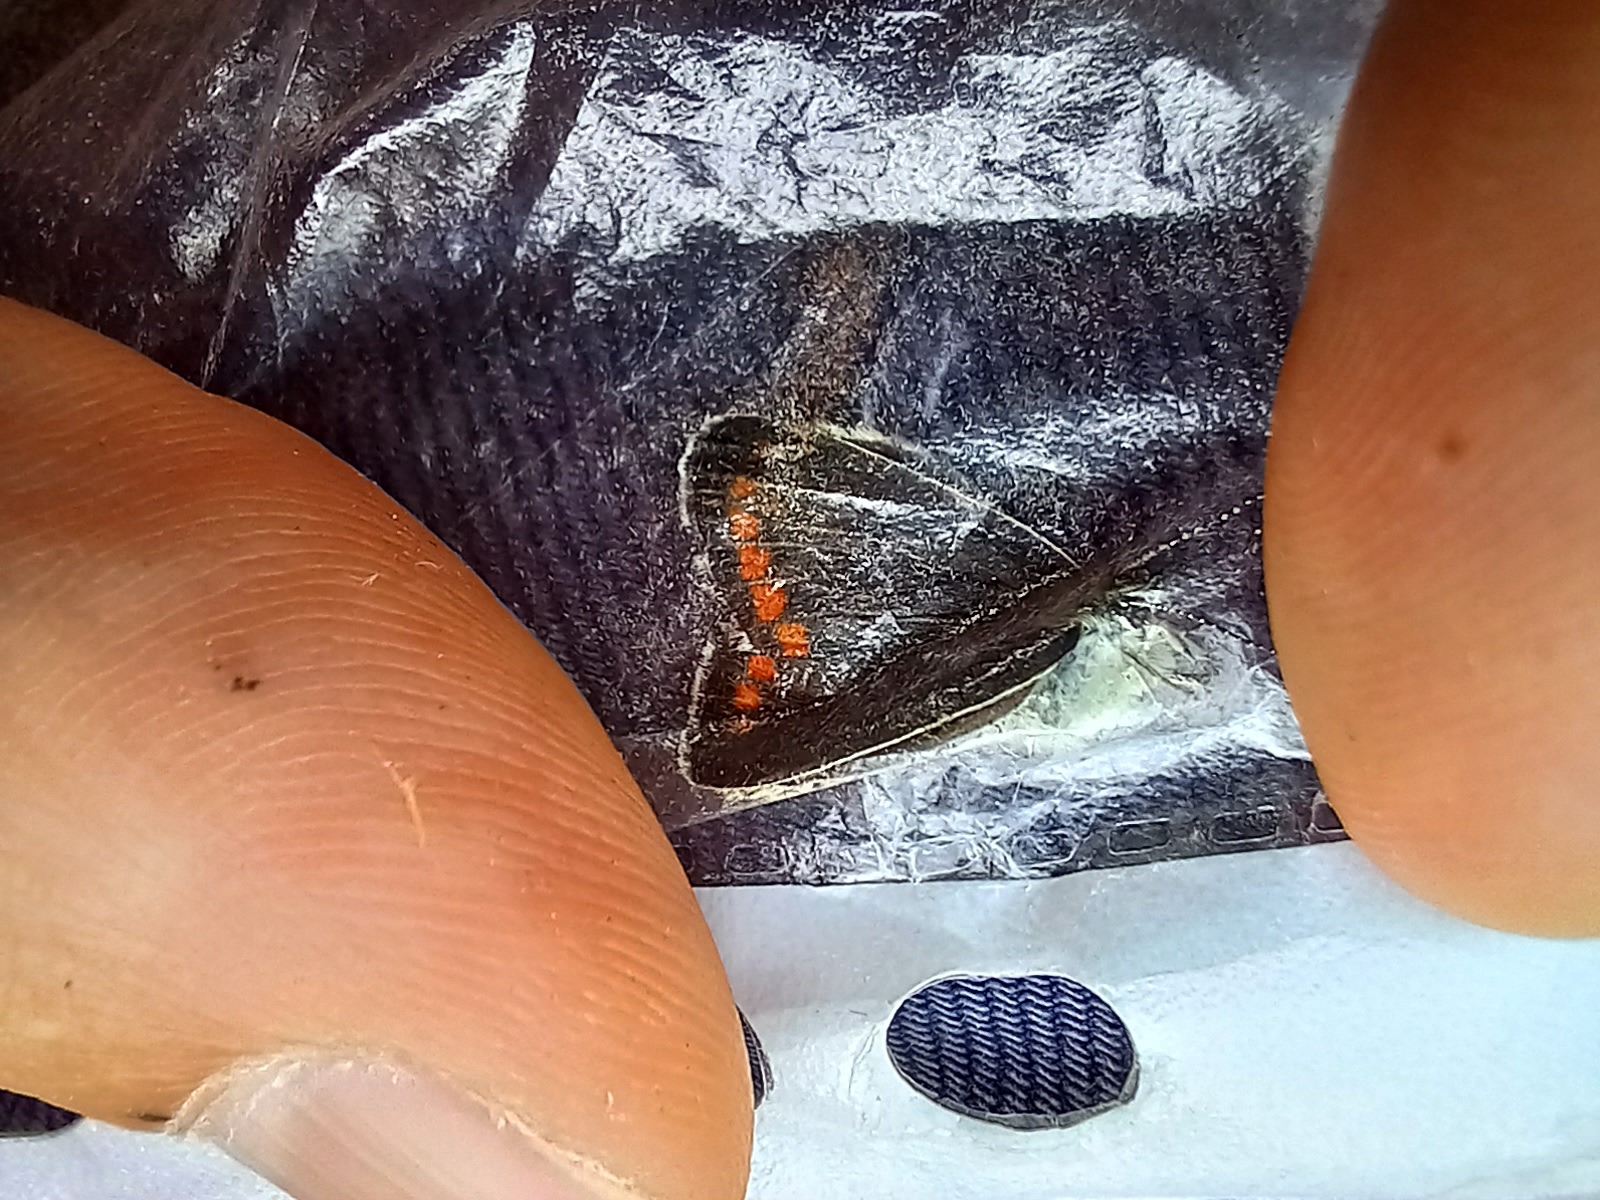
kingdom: Animalia
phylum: Arthropoda
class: Insecta
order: Lepidoptera
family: Lycaenidae
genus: Aricia
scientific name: Aricia agestis
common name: Brown argus
